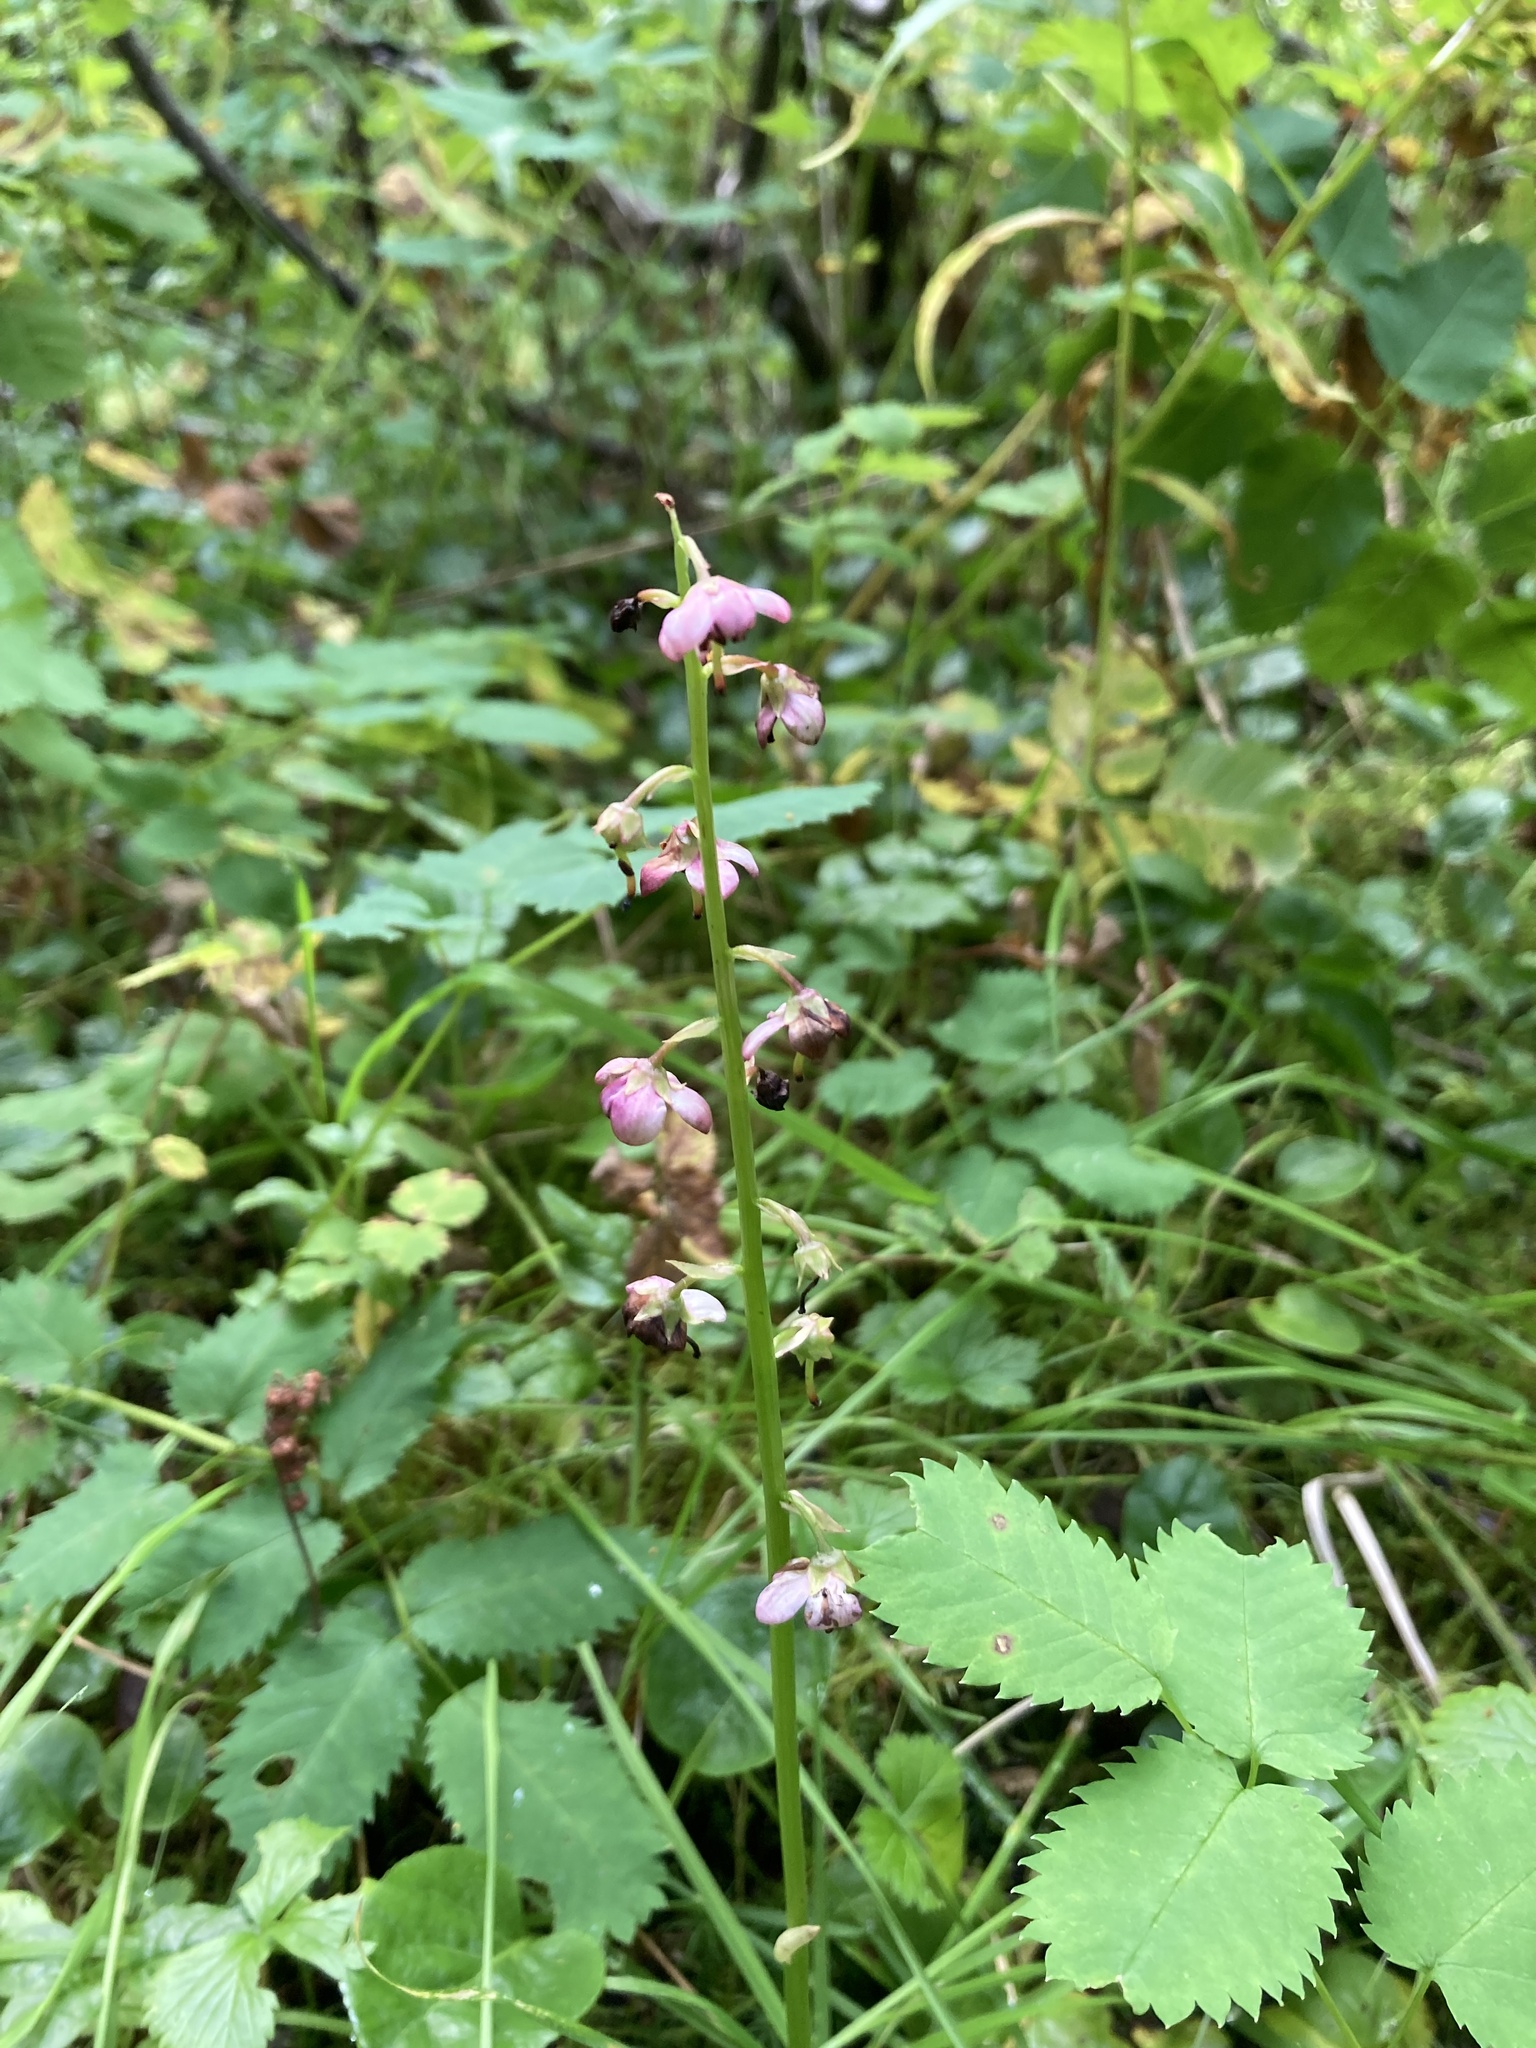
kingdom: Plantae
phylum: Tracheophyta
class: Magnoliopsida
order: Ericales
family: Ericaceae
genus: Pyrola
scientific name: Pyrola asarifolia
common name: Bog wintergreen
